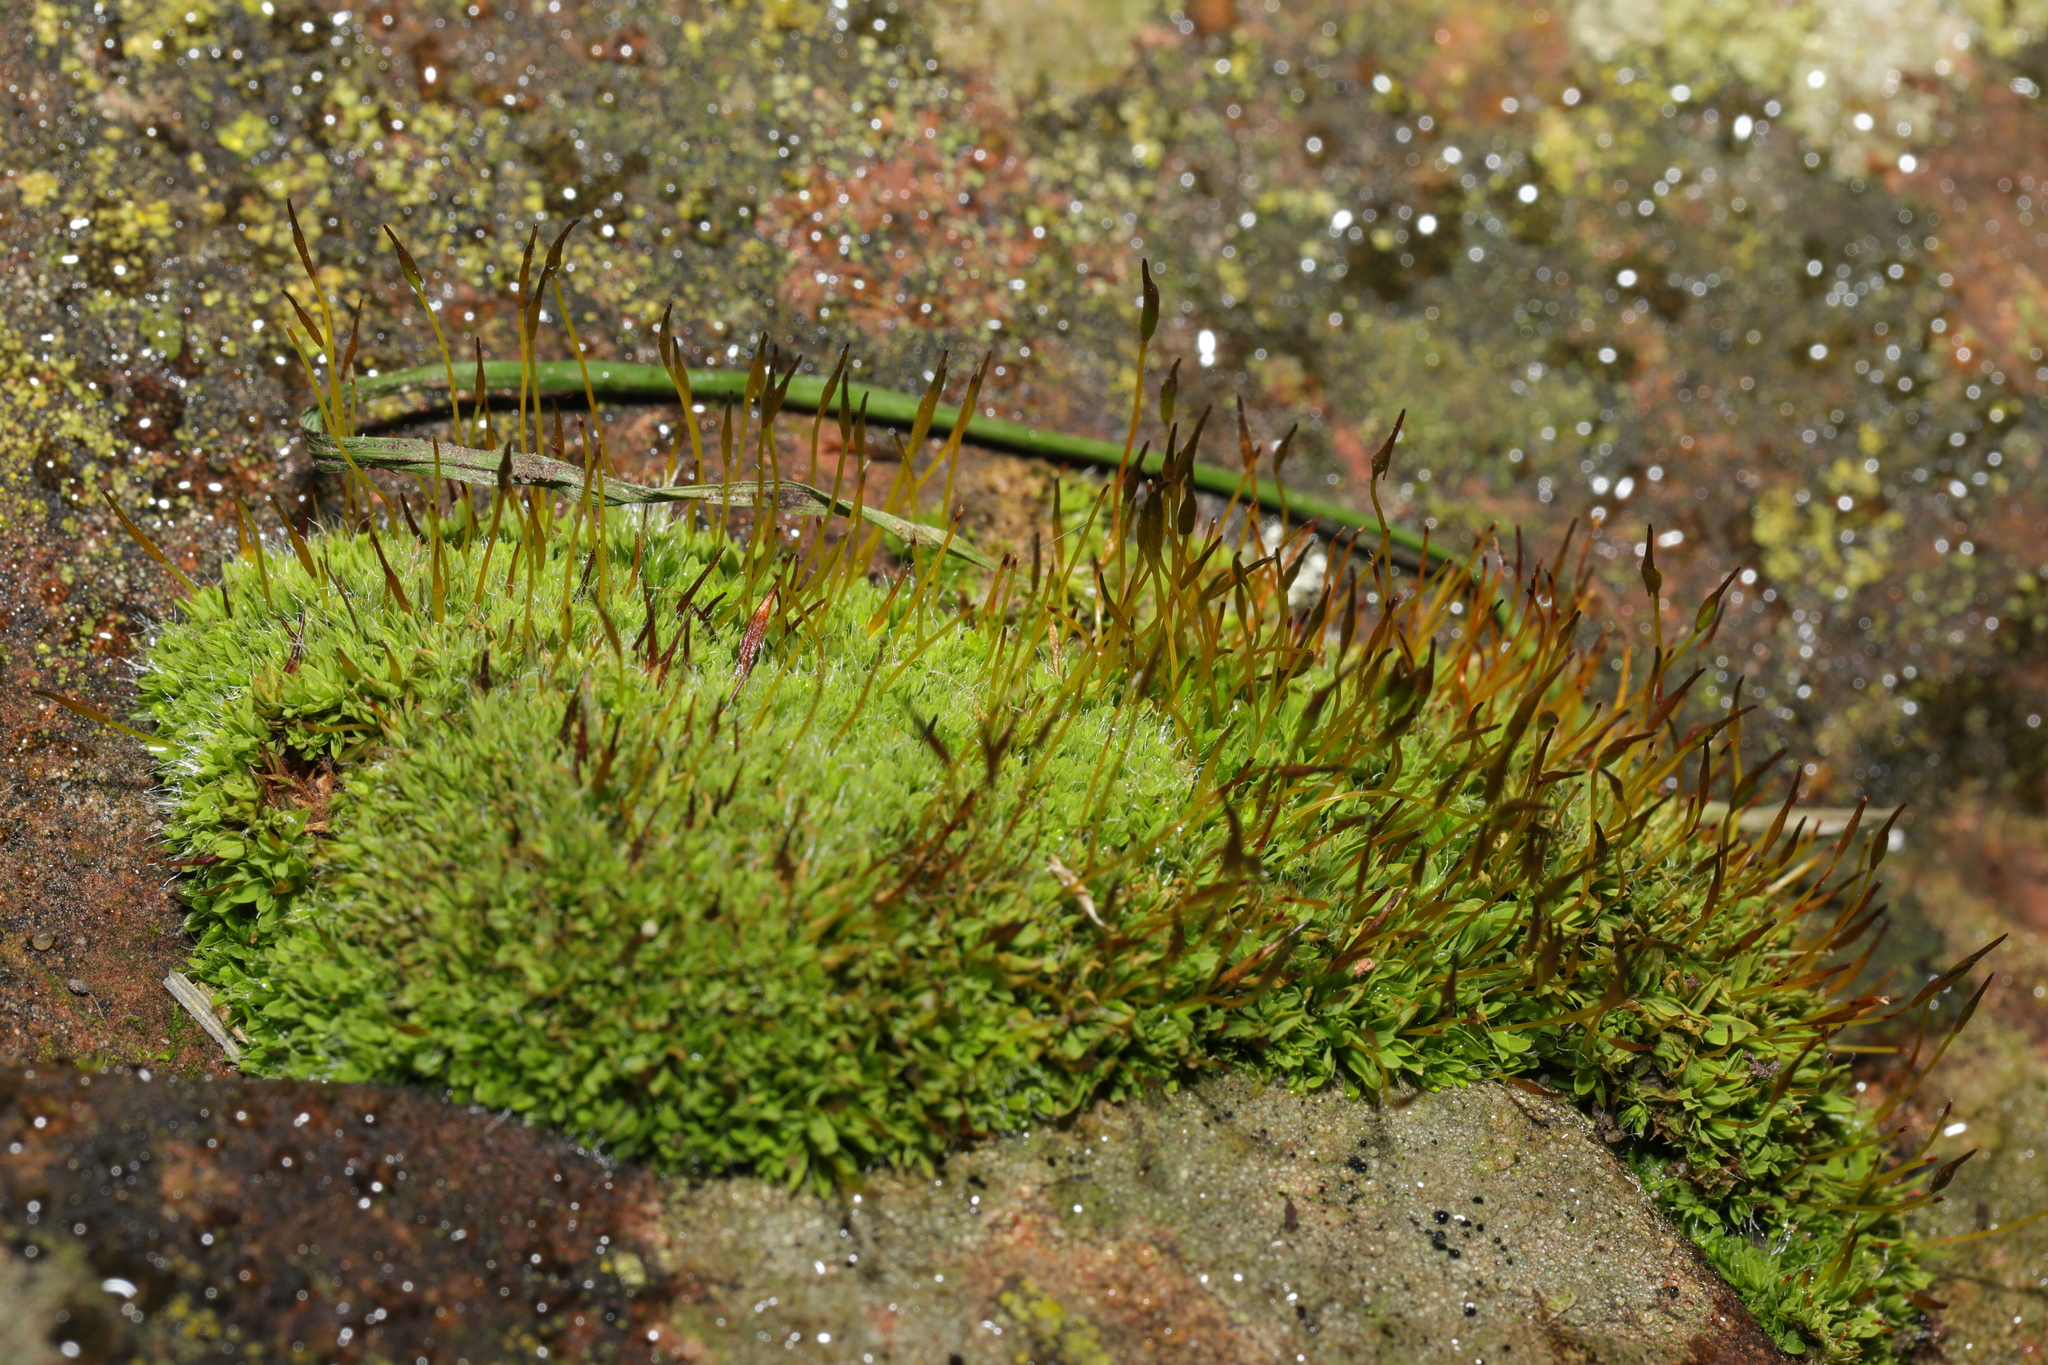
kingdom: Plantae
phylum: Bryophyta
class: Bryopsida
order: Pottiales
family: Pottiaceae
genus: Tortula
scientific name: Tortula muralis
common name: Wall screw-moss
